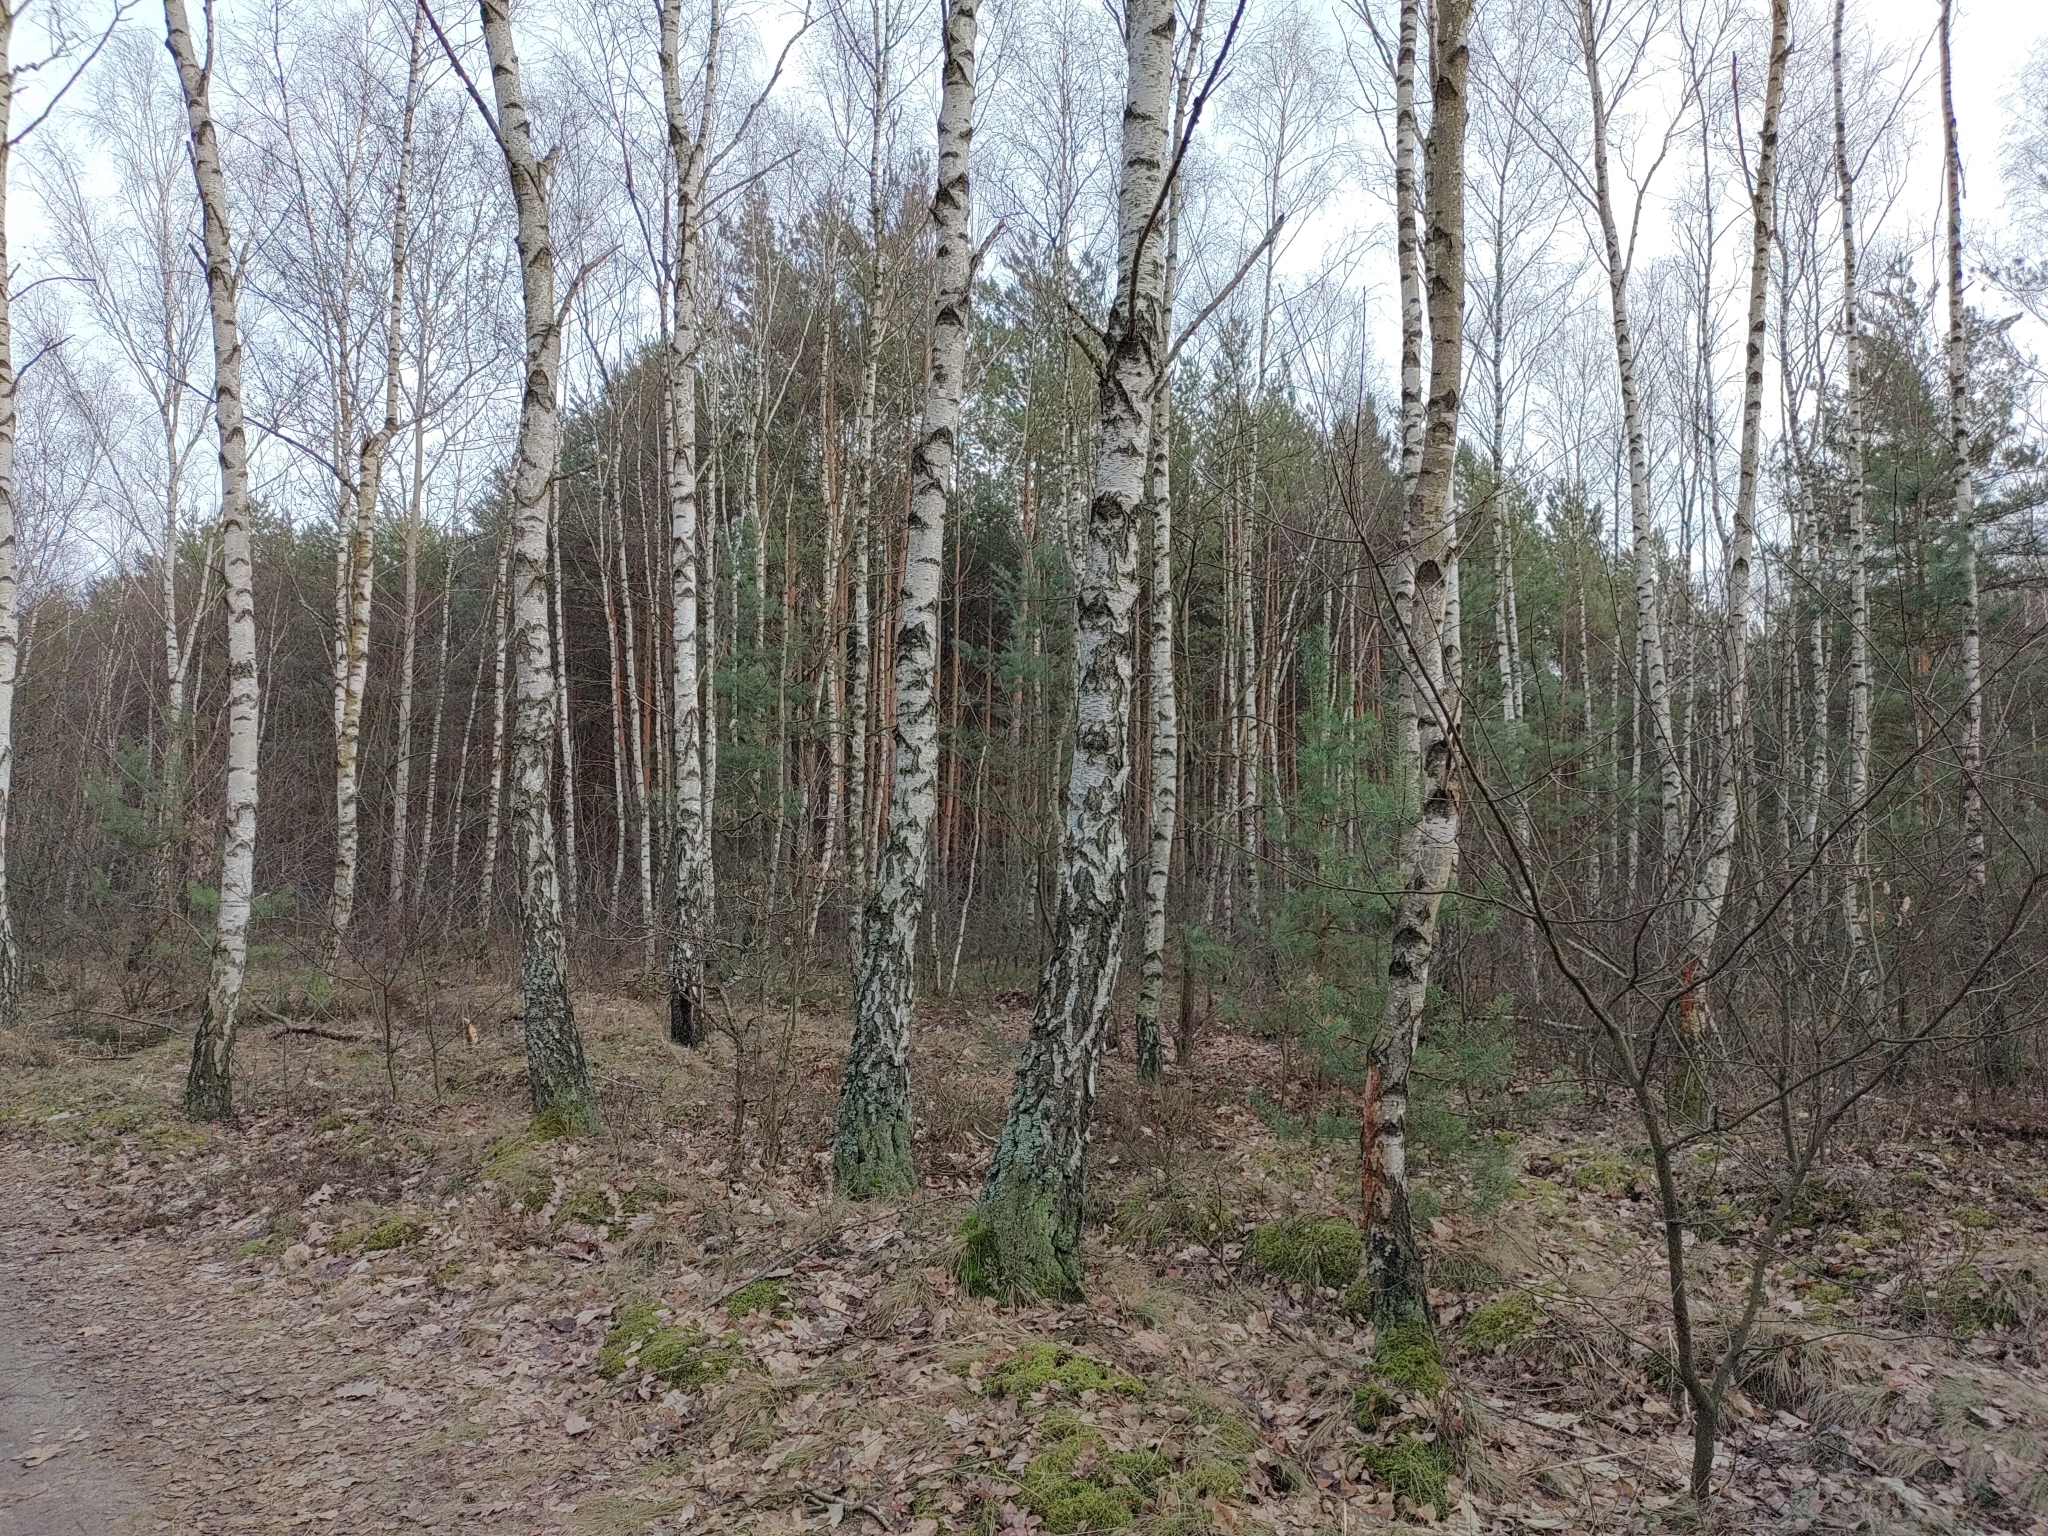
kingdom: Animalia
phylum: Chordata
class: Aves
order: Passeriformes
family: Turdidae
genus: Turdus
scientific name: Turdus viscivorus
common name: Mistle thrush
